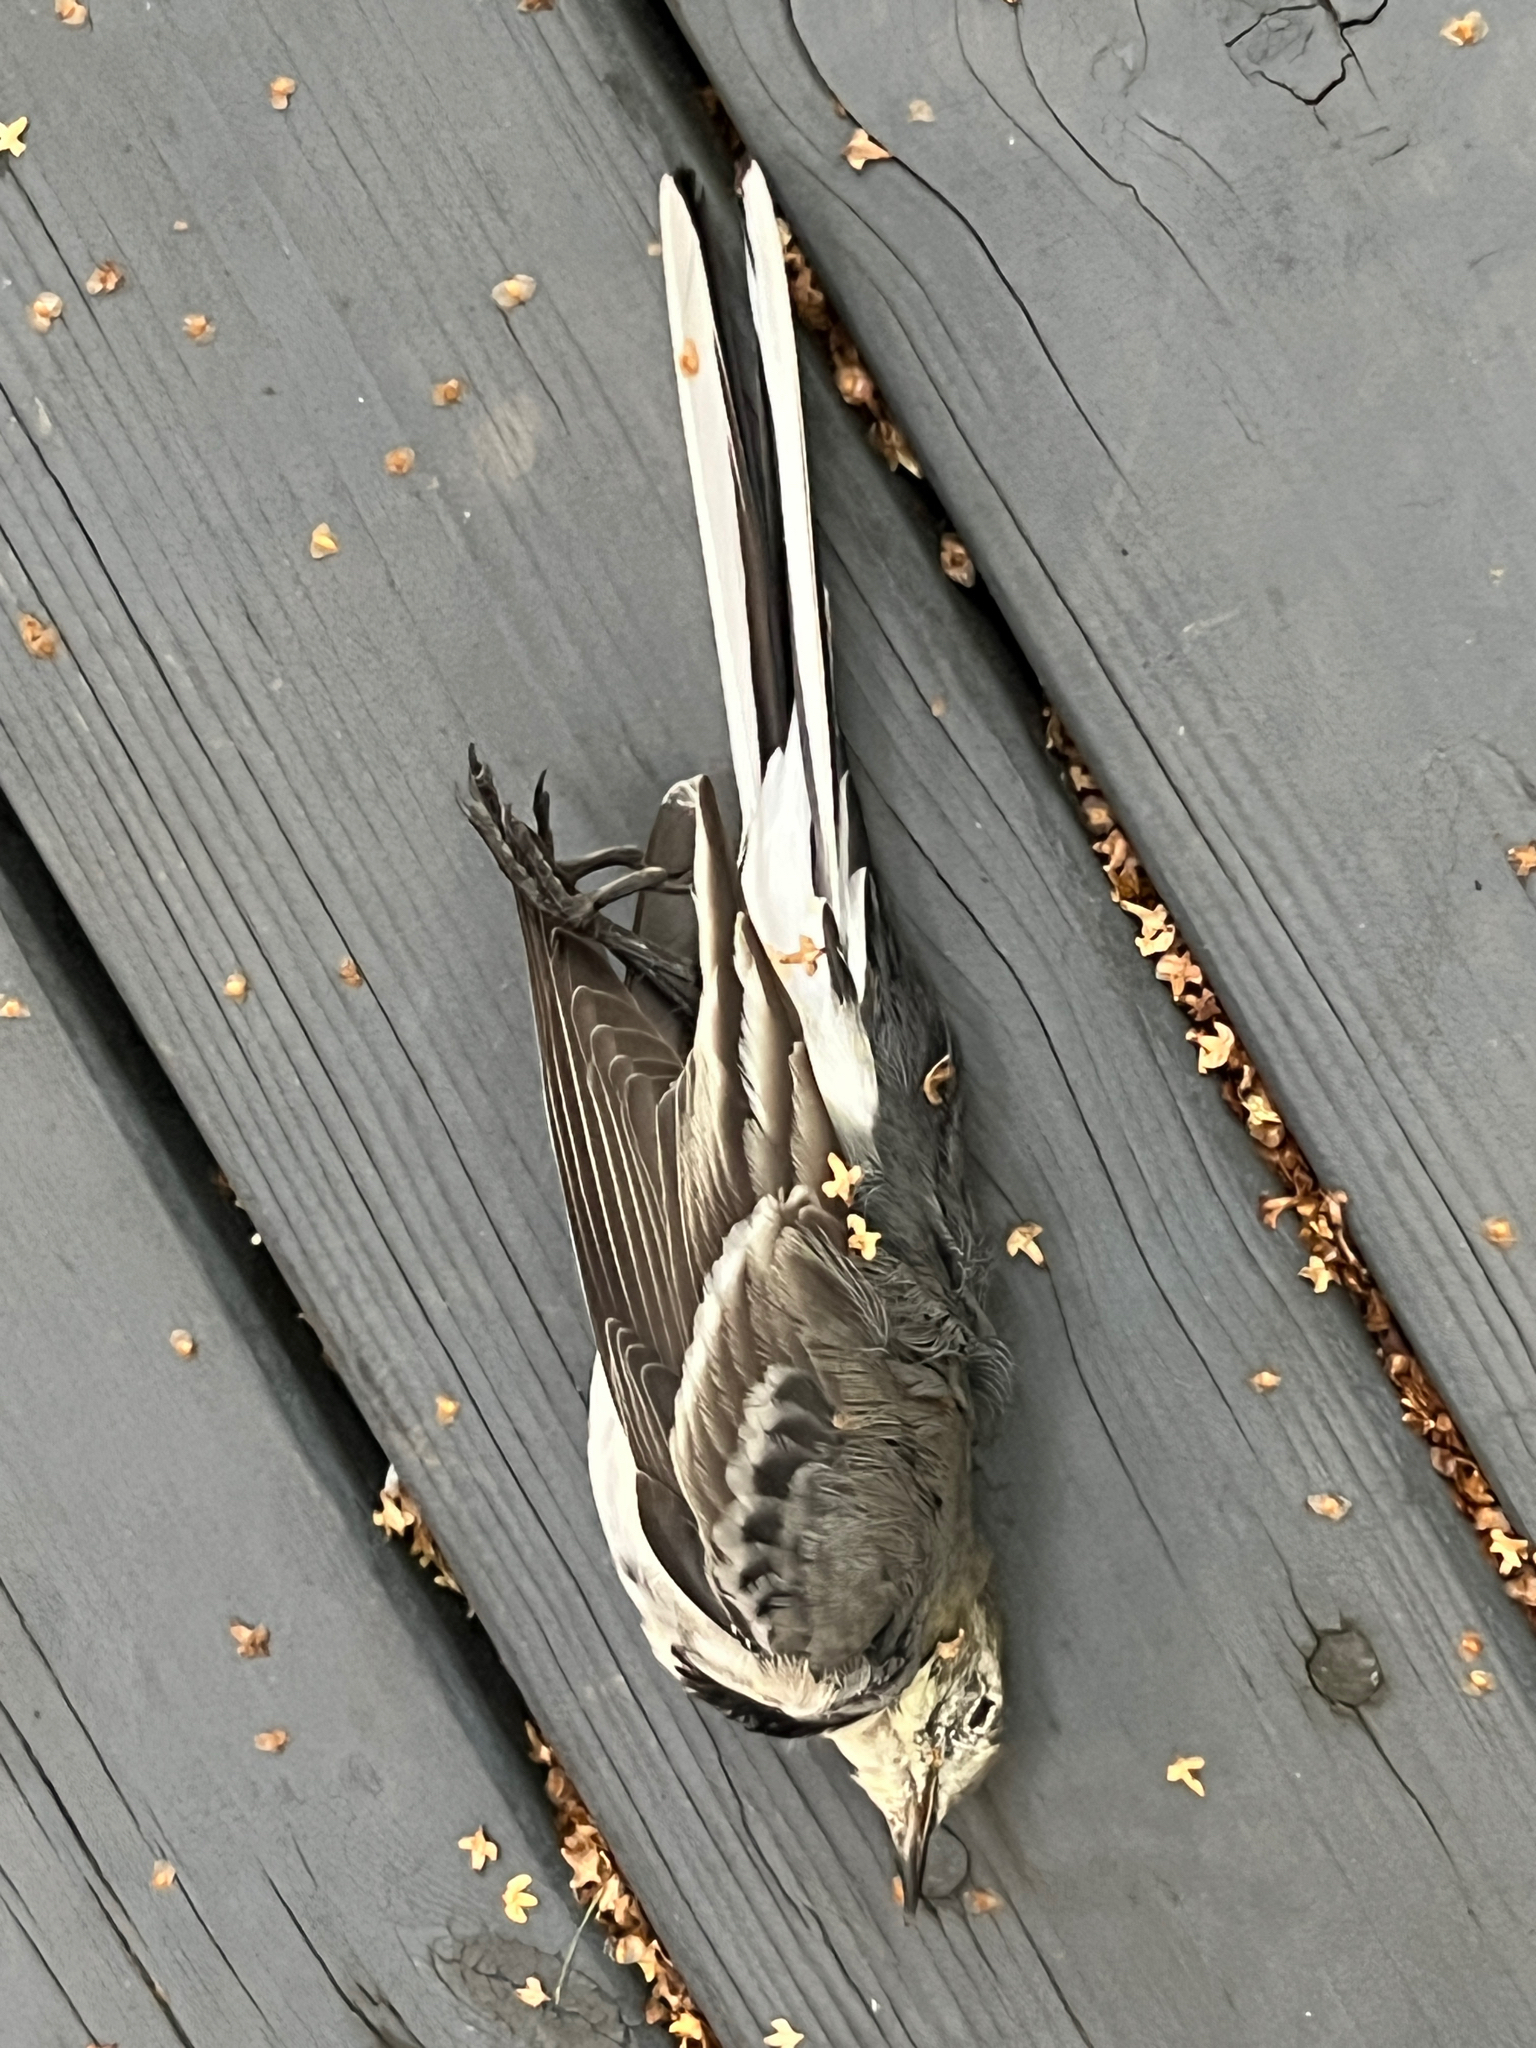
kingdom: Animalia
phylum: Chordata
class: Aves
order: Passeriformes
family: Motacillidae
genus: Motacilla
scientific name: Motacilla alba
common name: White wagtail
